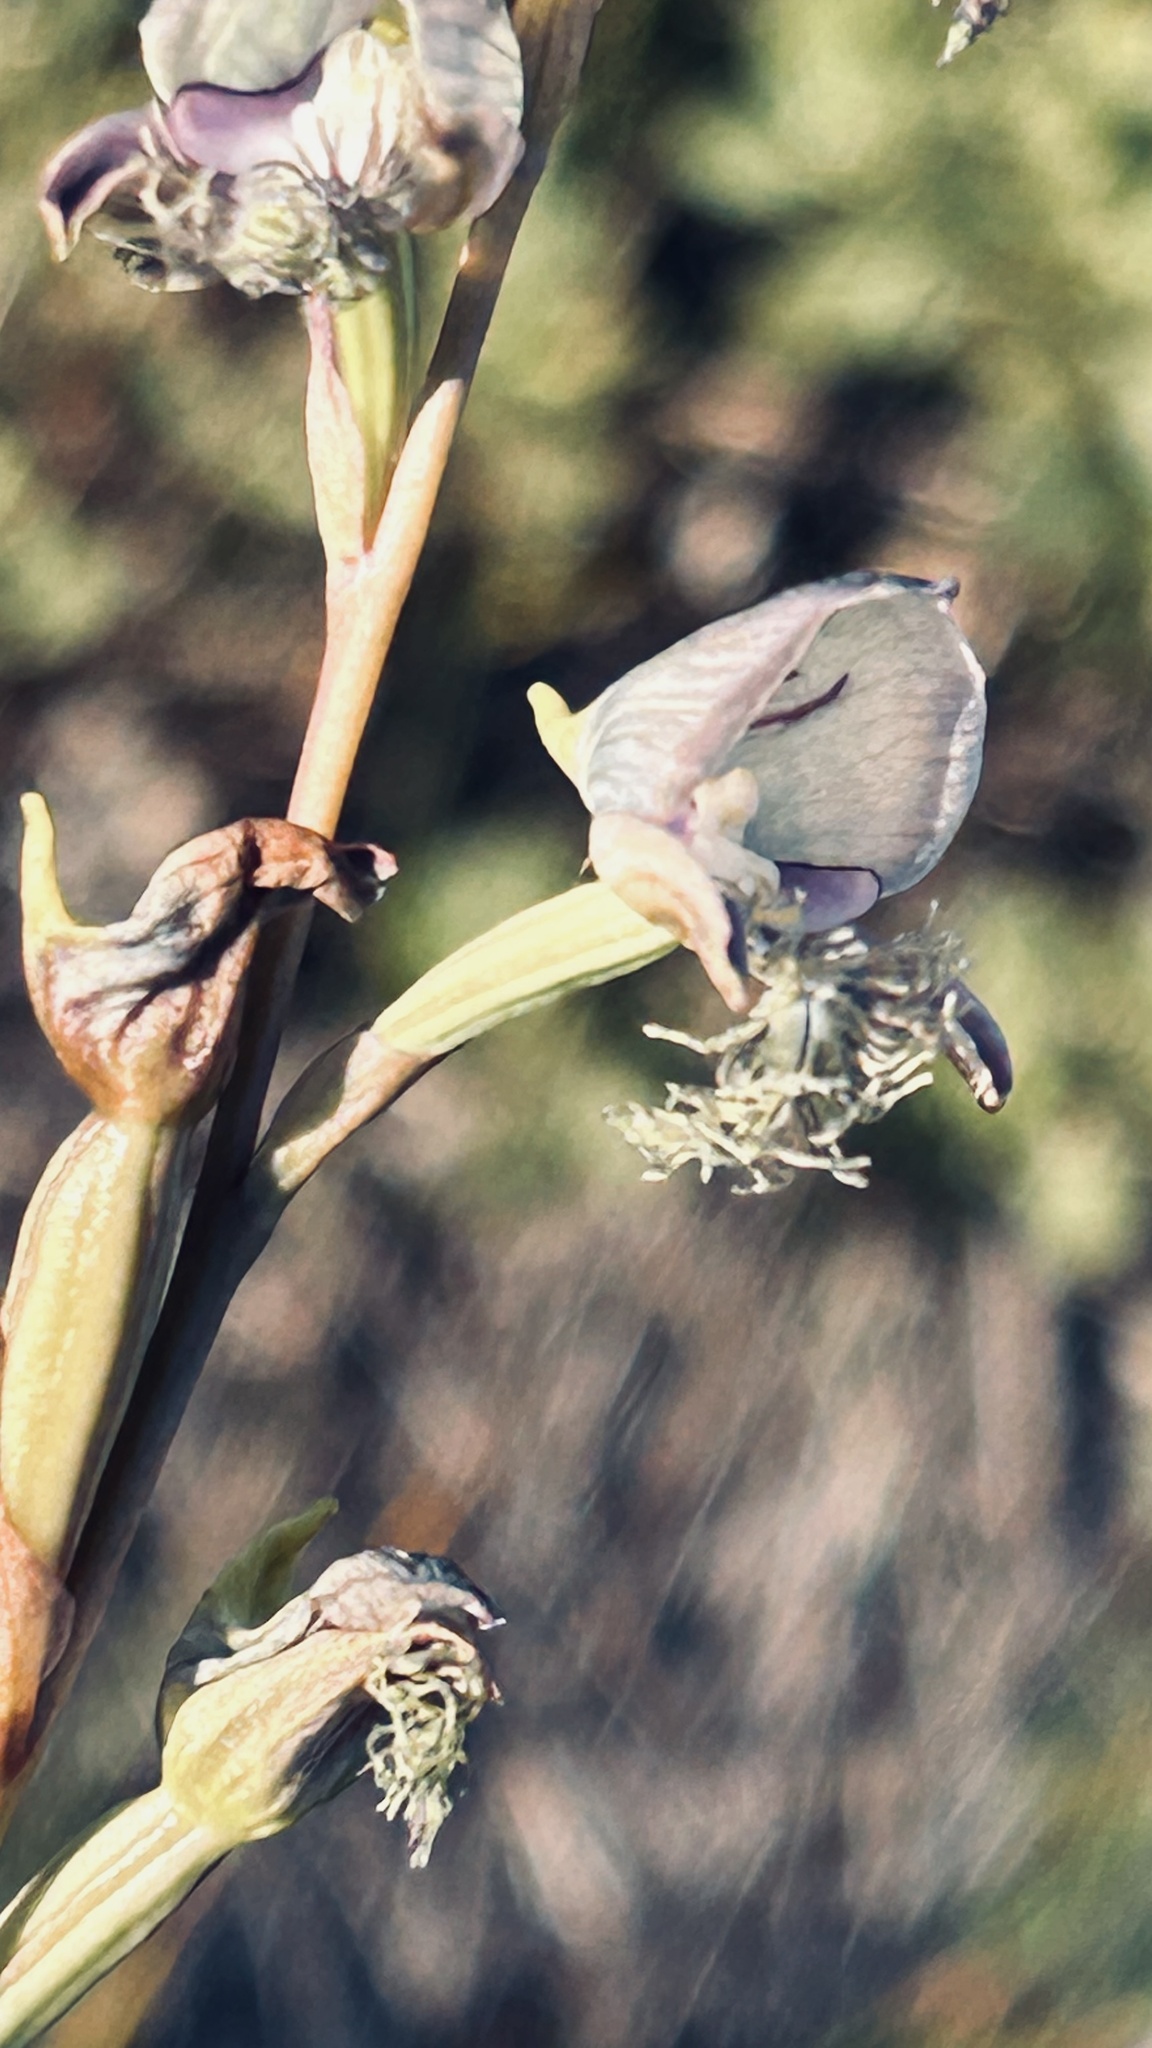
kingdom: Plantae
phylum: Tracheophyta
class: Liliopsida
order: Asparagales
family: Orchidaceae
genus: Disa
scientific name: Disa lugens
